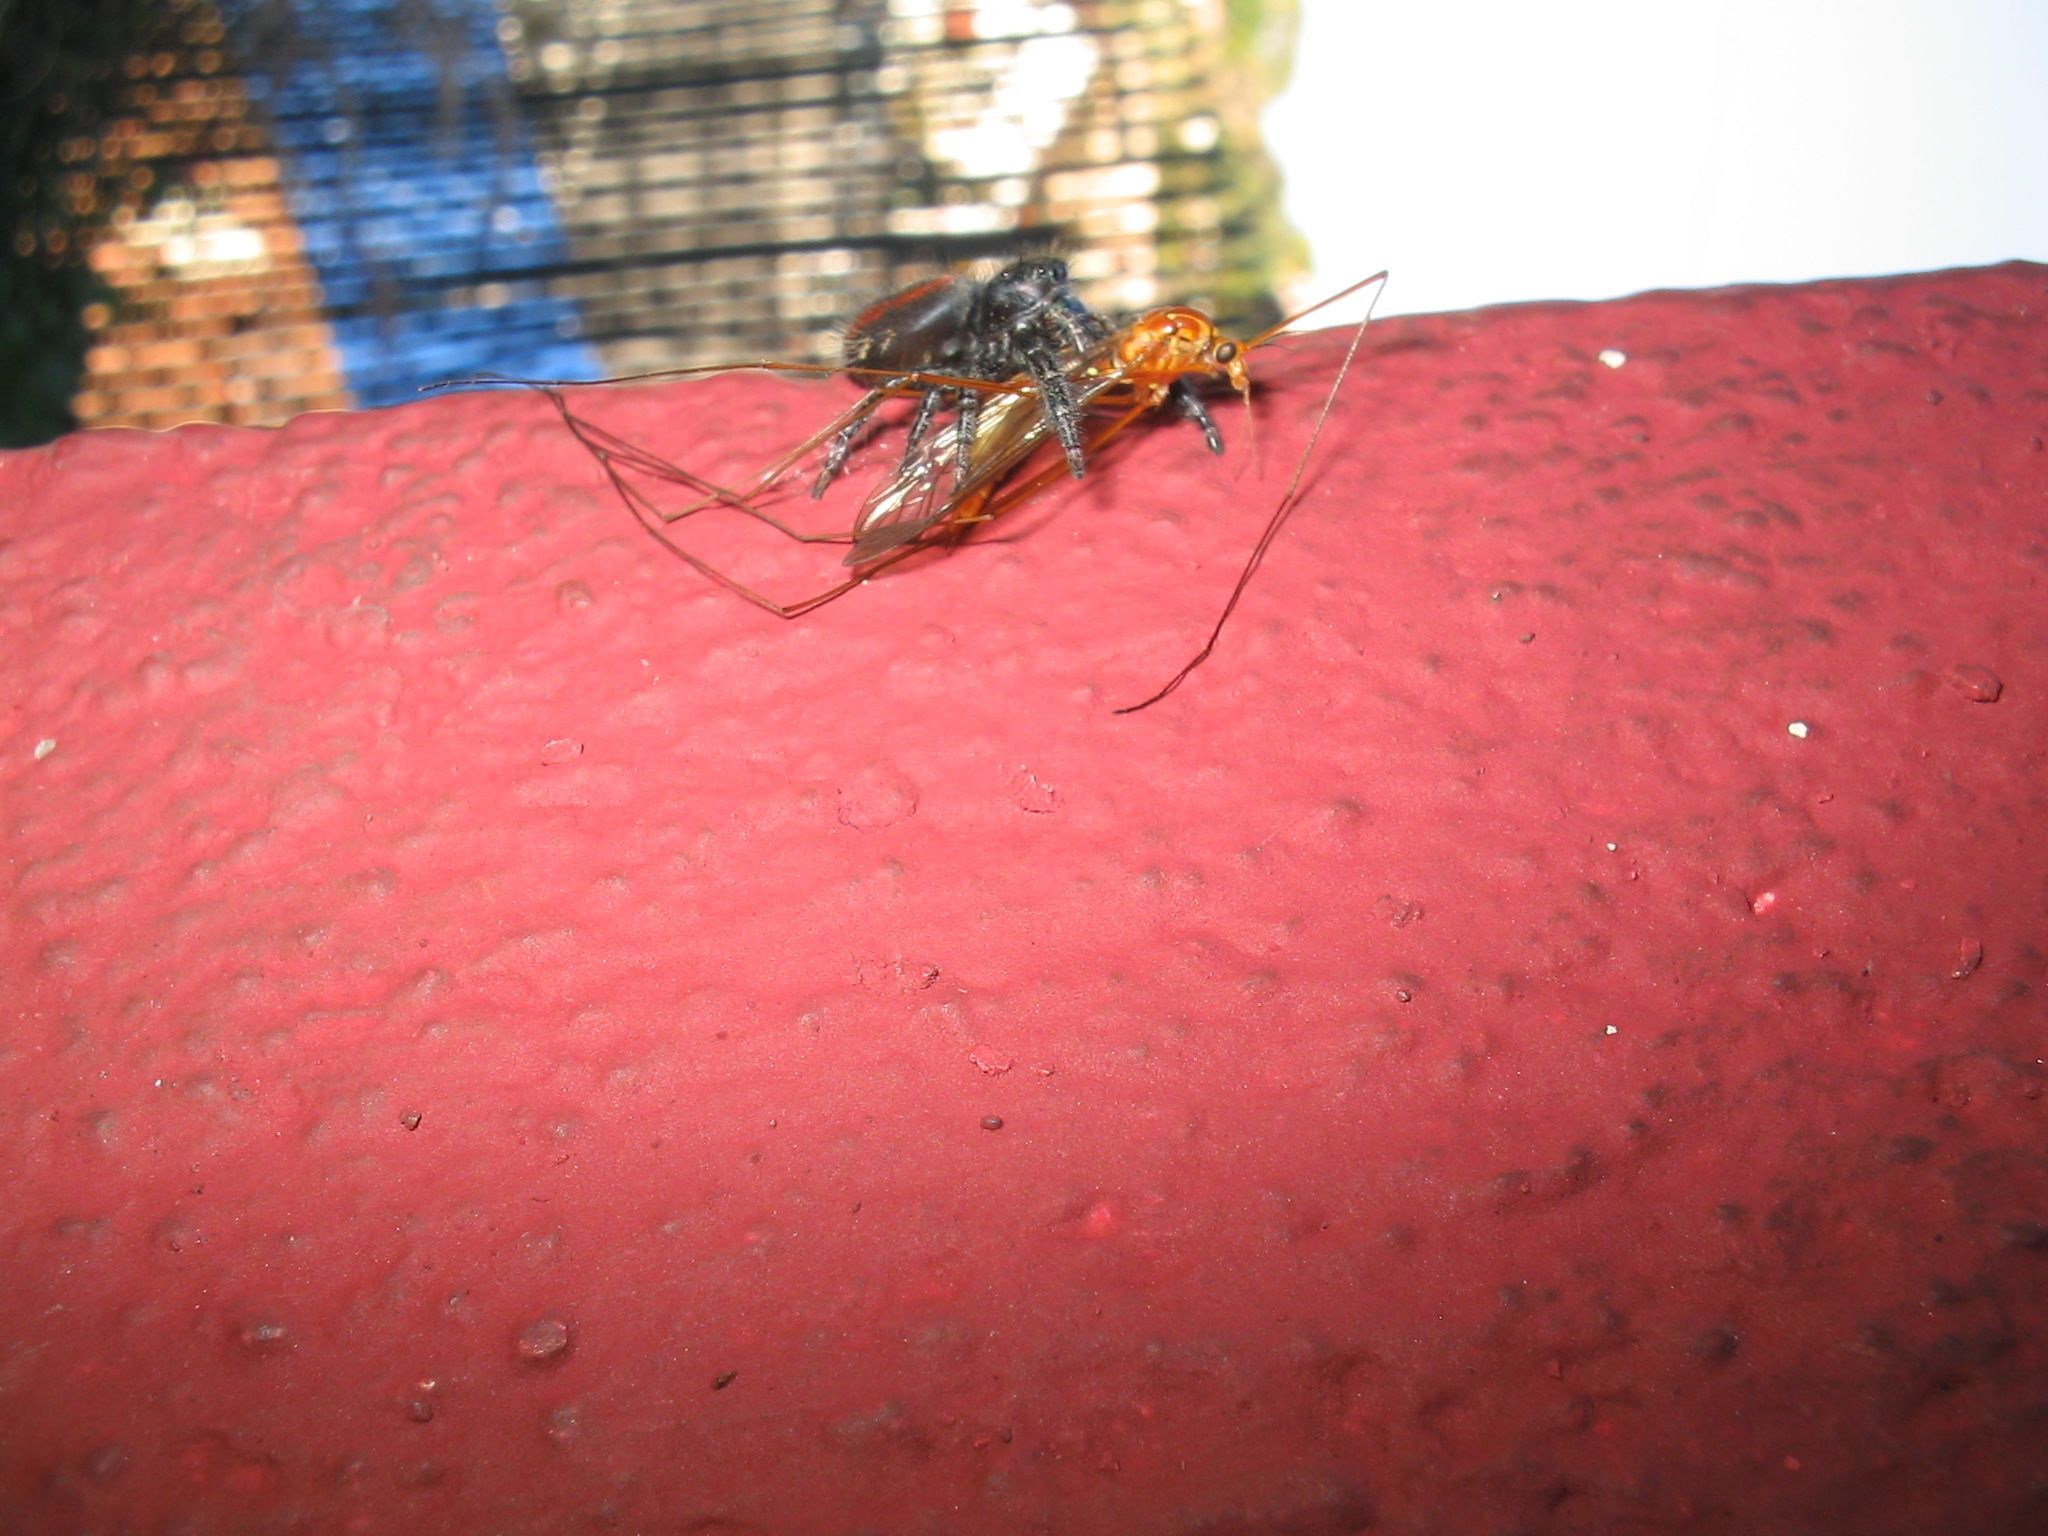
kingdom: Animalia
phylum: Arthropoda
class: Arachnida
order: Araneae
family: Salticidae
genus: Phidippus
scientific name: Phidippus johnsoni
